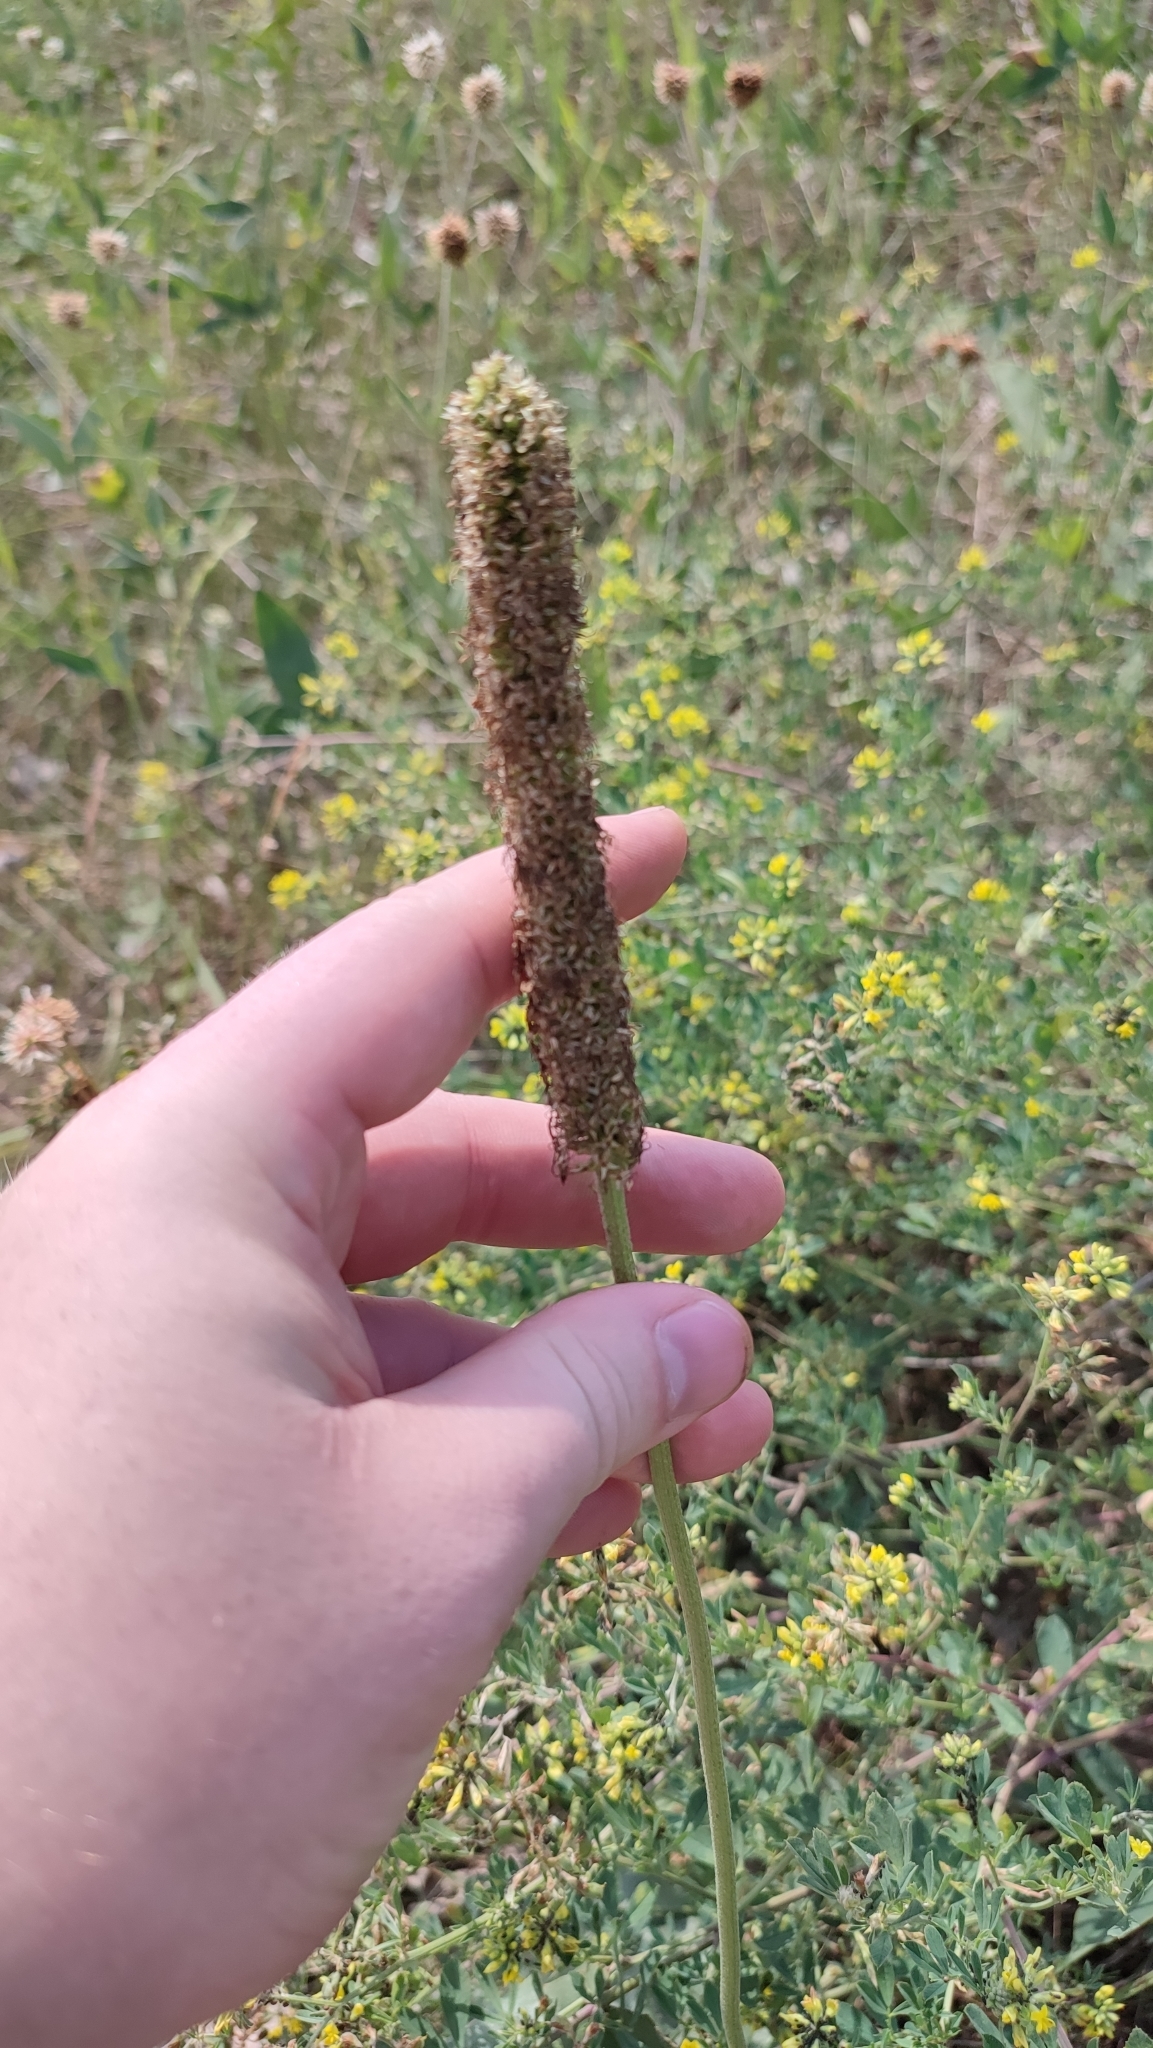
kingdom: Plantae
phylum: Tracheophyta
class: Magnoliopsida
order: Lamiales
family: Plantaginaceae
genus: Plantago
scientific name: Plantago maxima
